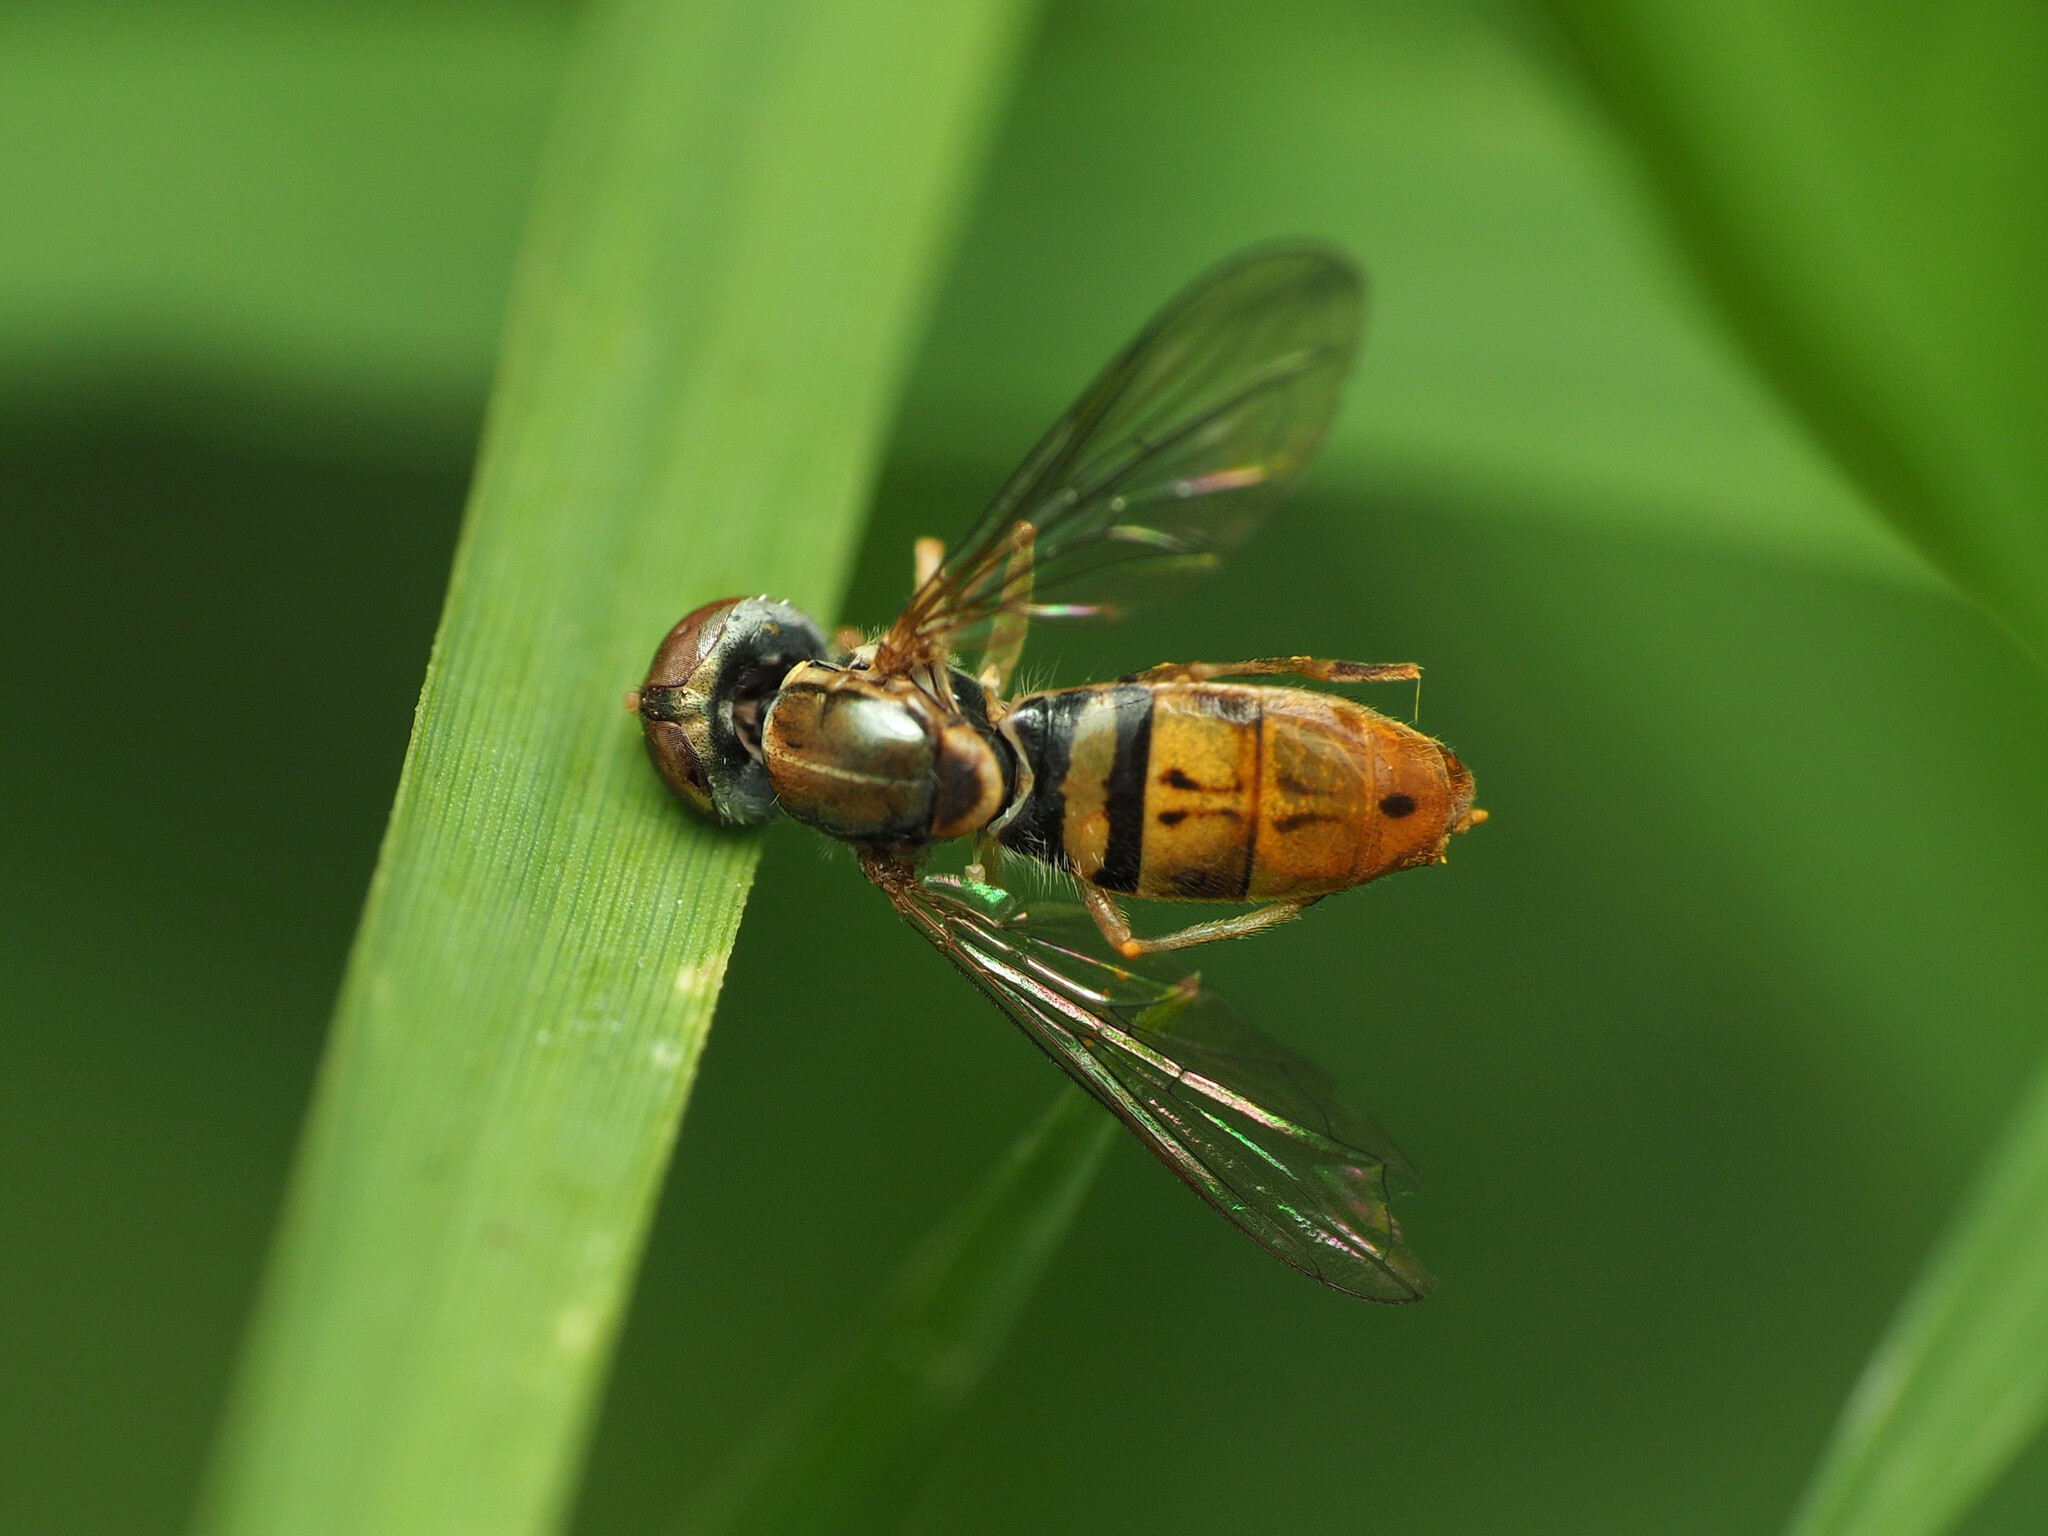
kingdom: Animalia
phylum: Arthropoda
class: Insecta
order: Diptera
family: Syrphidae
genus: Toxomerus
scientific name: Toxomerus marginatus
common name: Syrphid fly
